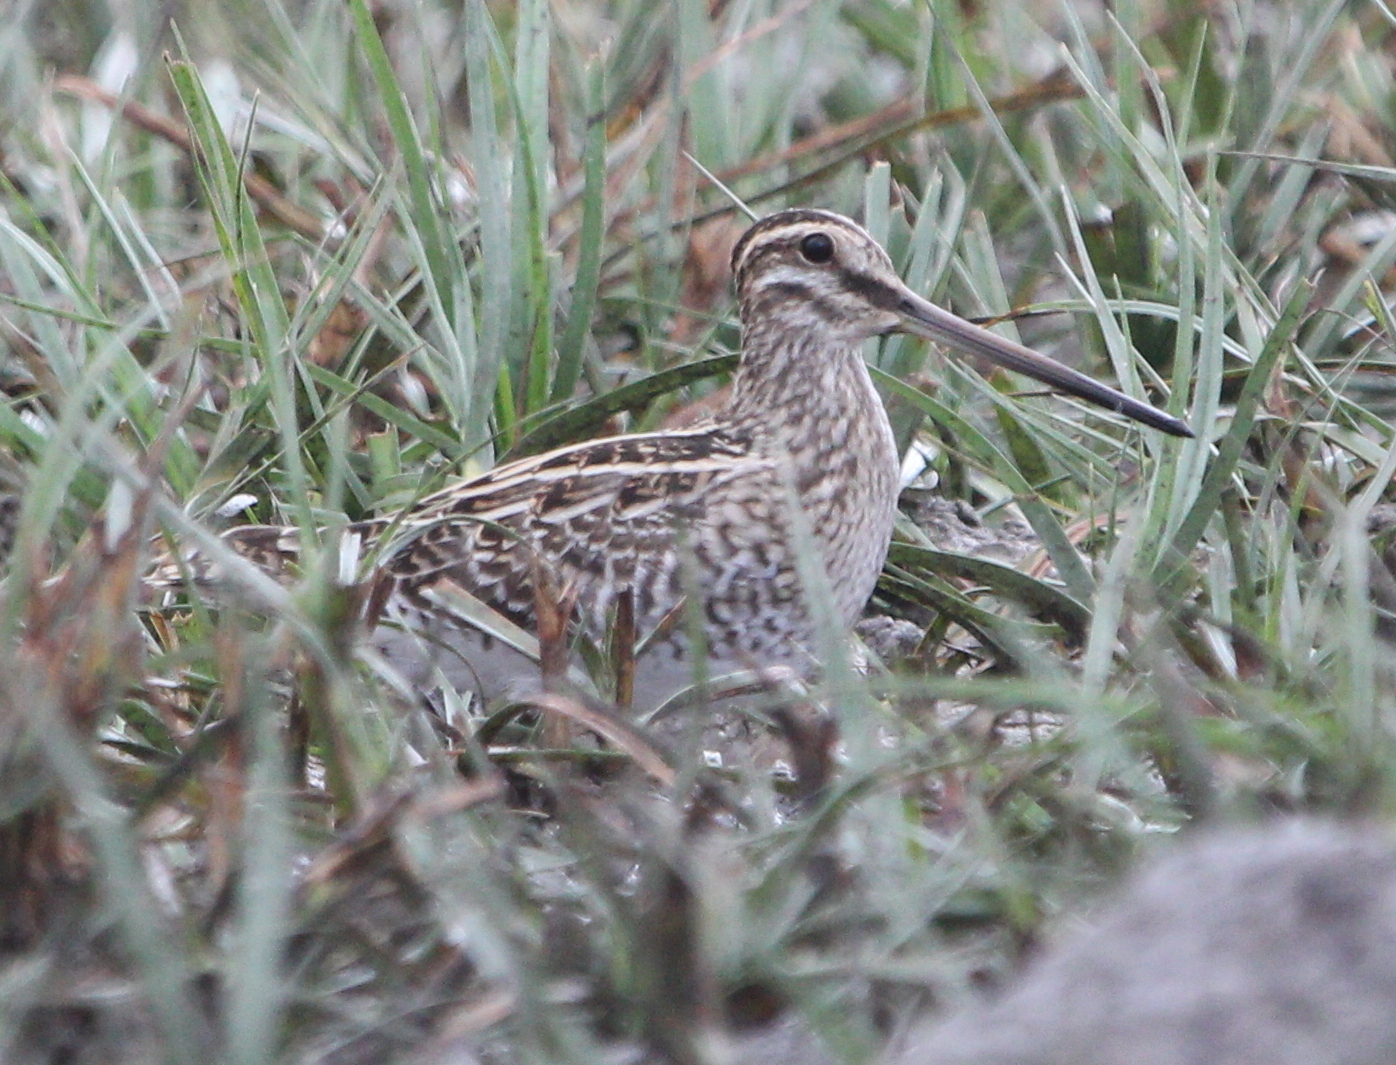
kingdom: Animalia
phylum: Chordata
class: Aves
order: Charadriiformes
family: Scolopacidae
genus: Gallinago
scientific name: Gallinago gallinago
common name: Common snipe
